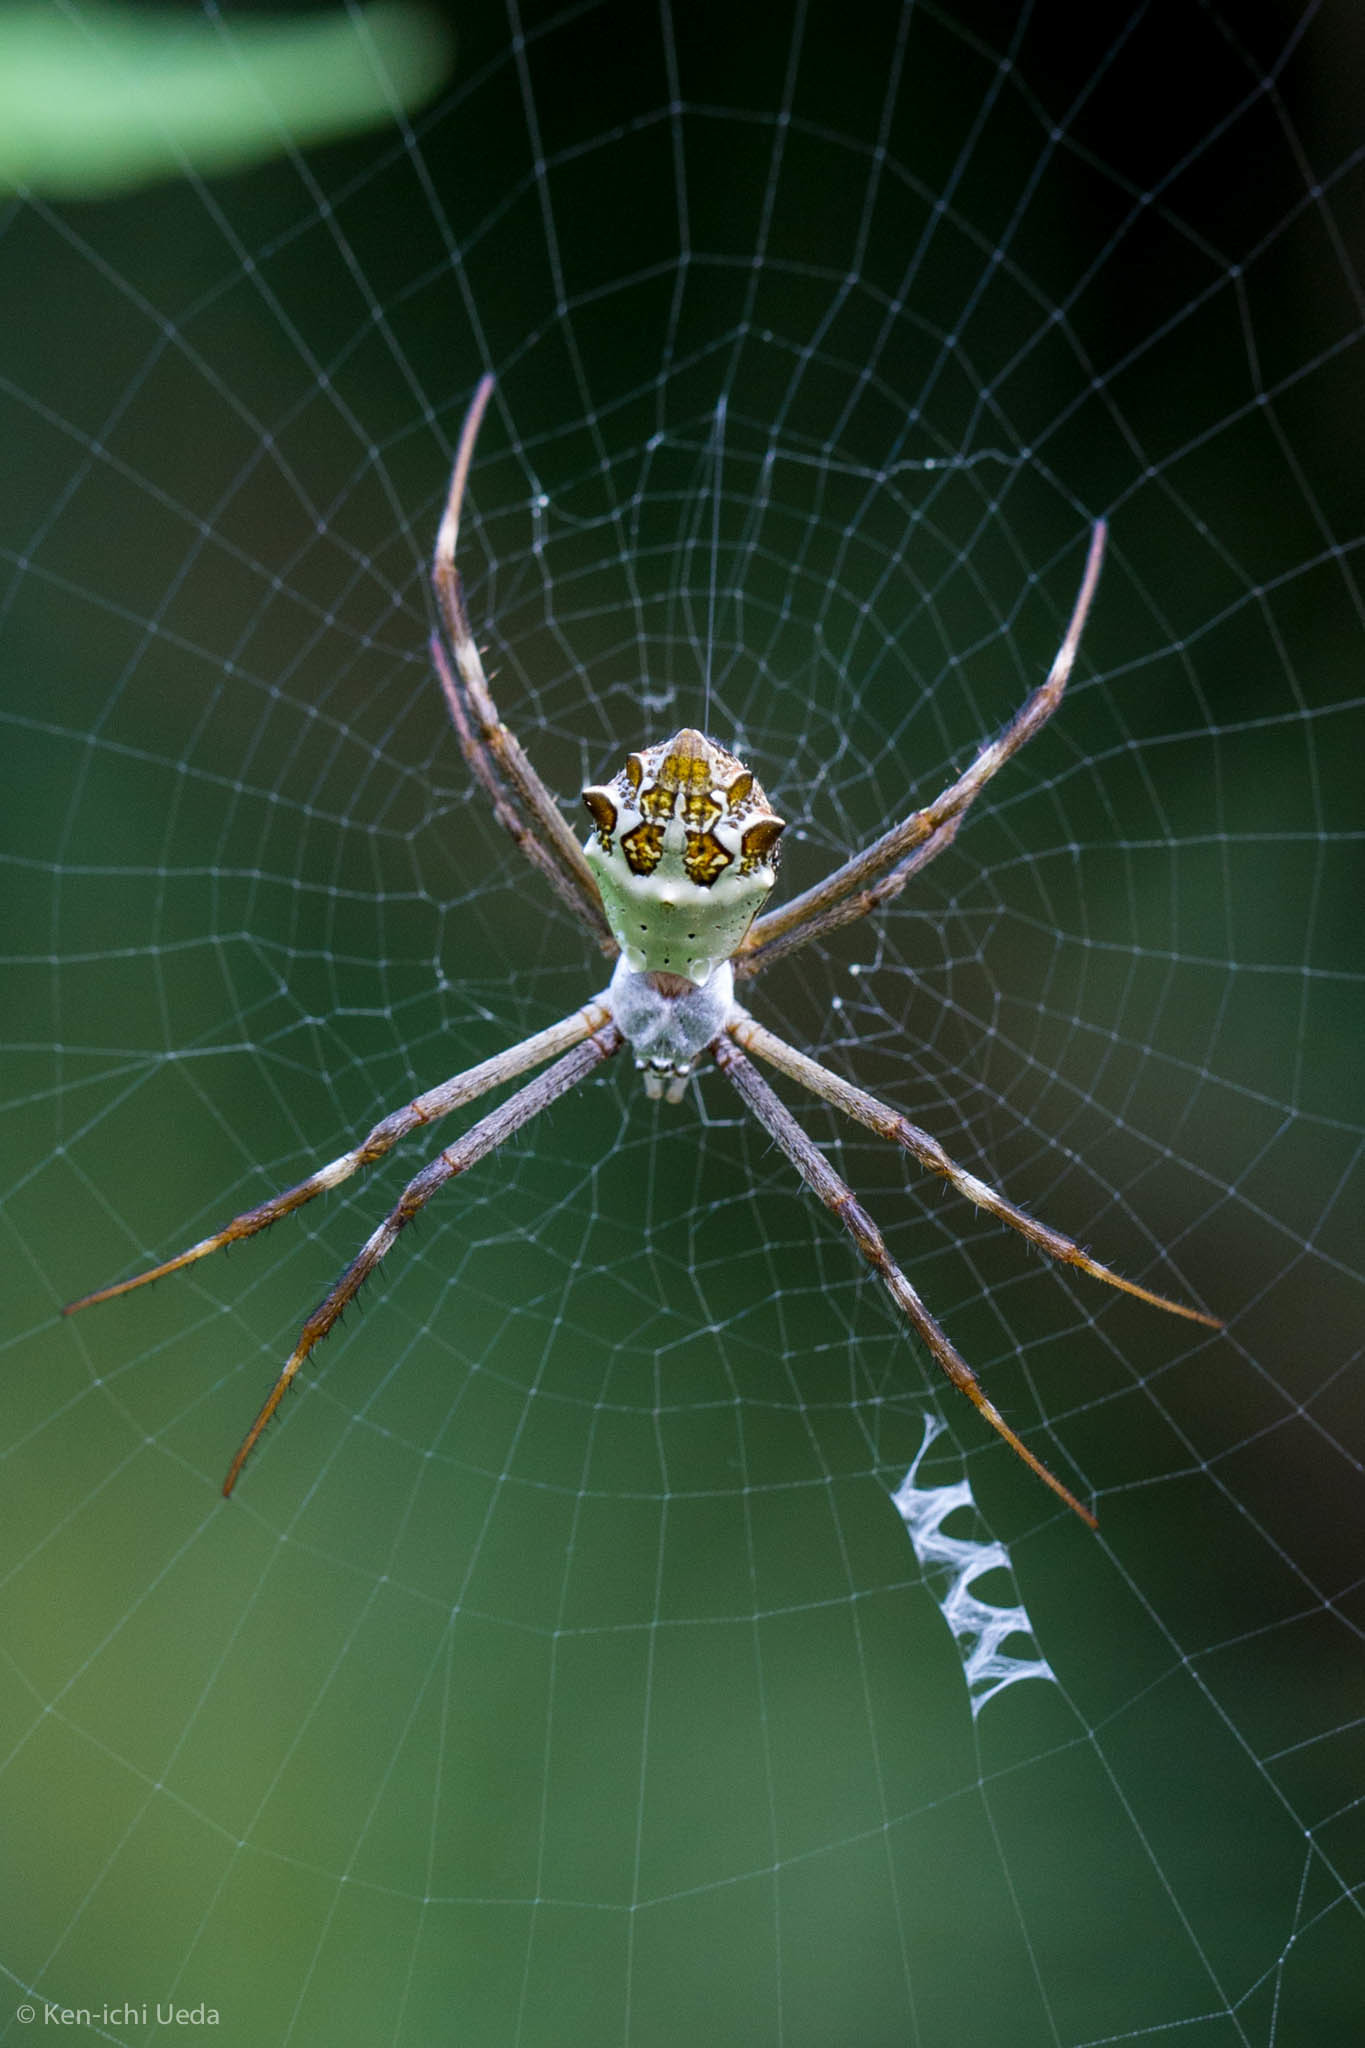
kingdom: Animalia
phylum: Arthropoda
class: Arachnida
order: Araneae
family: Araneidae
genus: Argiope
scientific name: Argiope argentata
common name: Orb weavers
